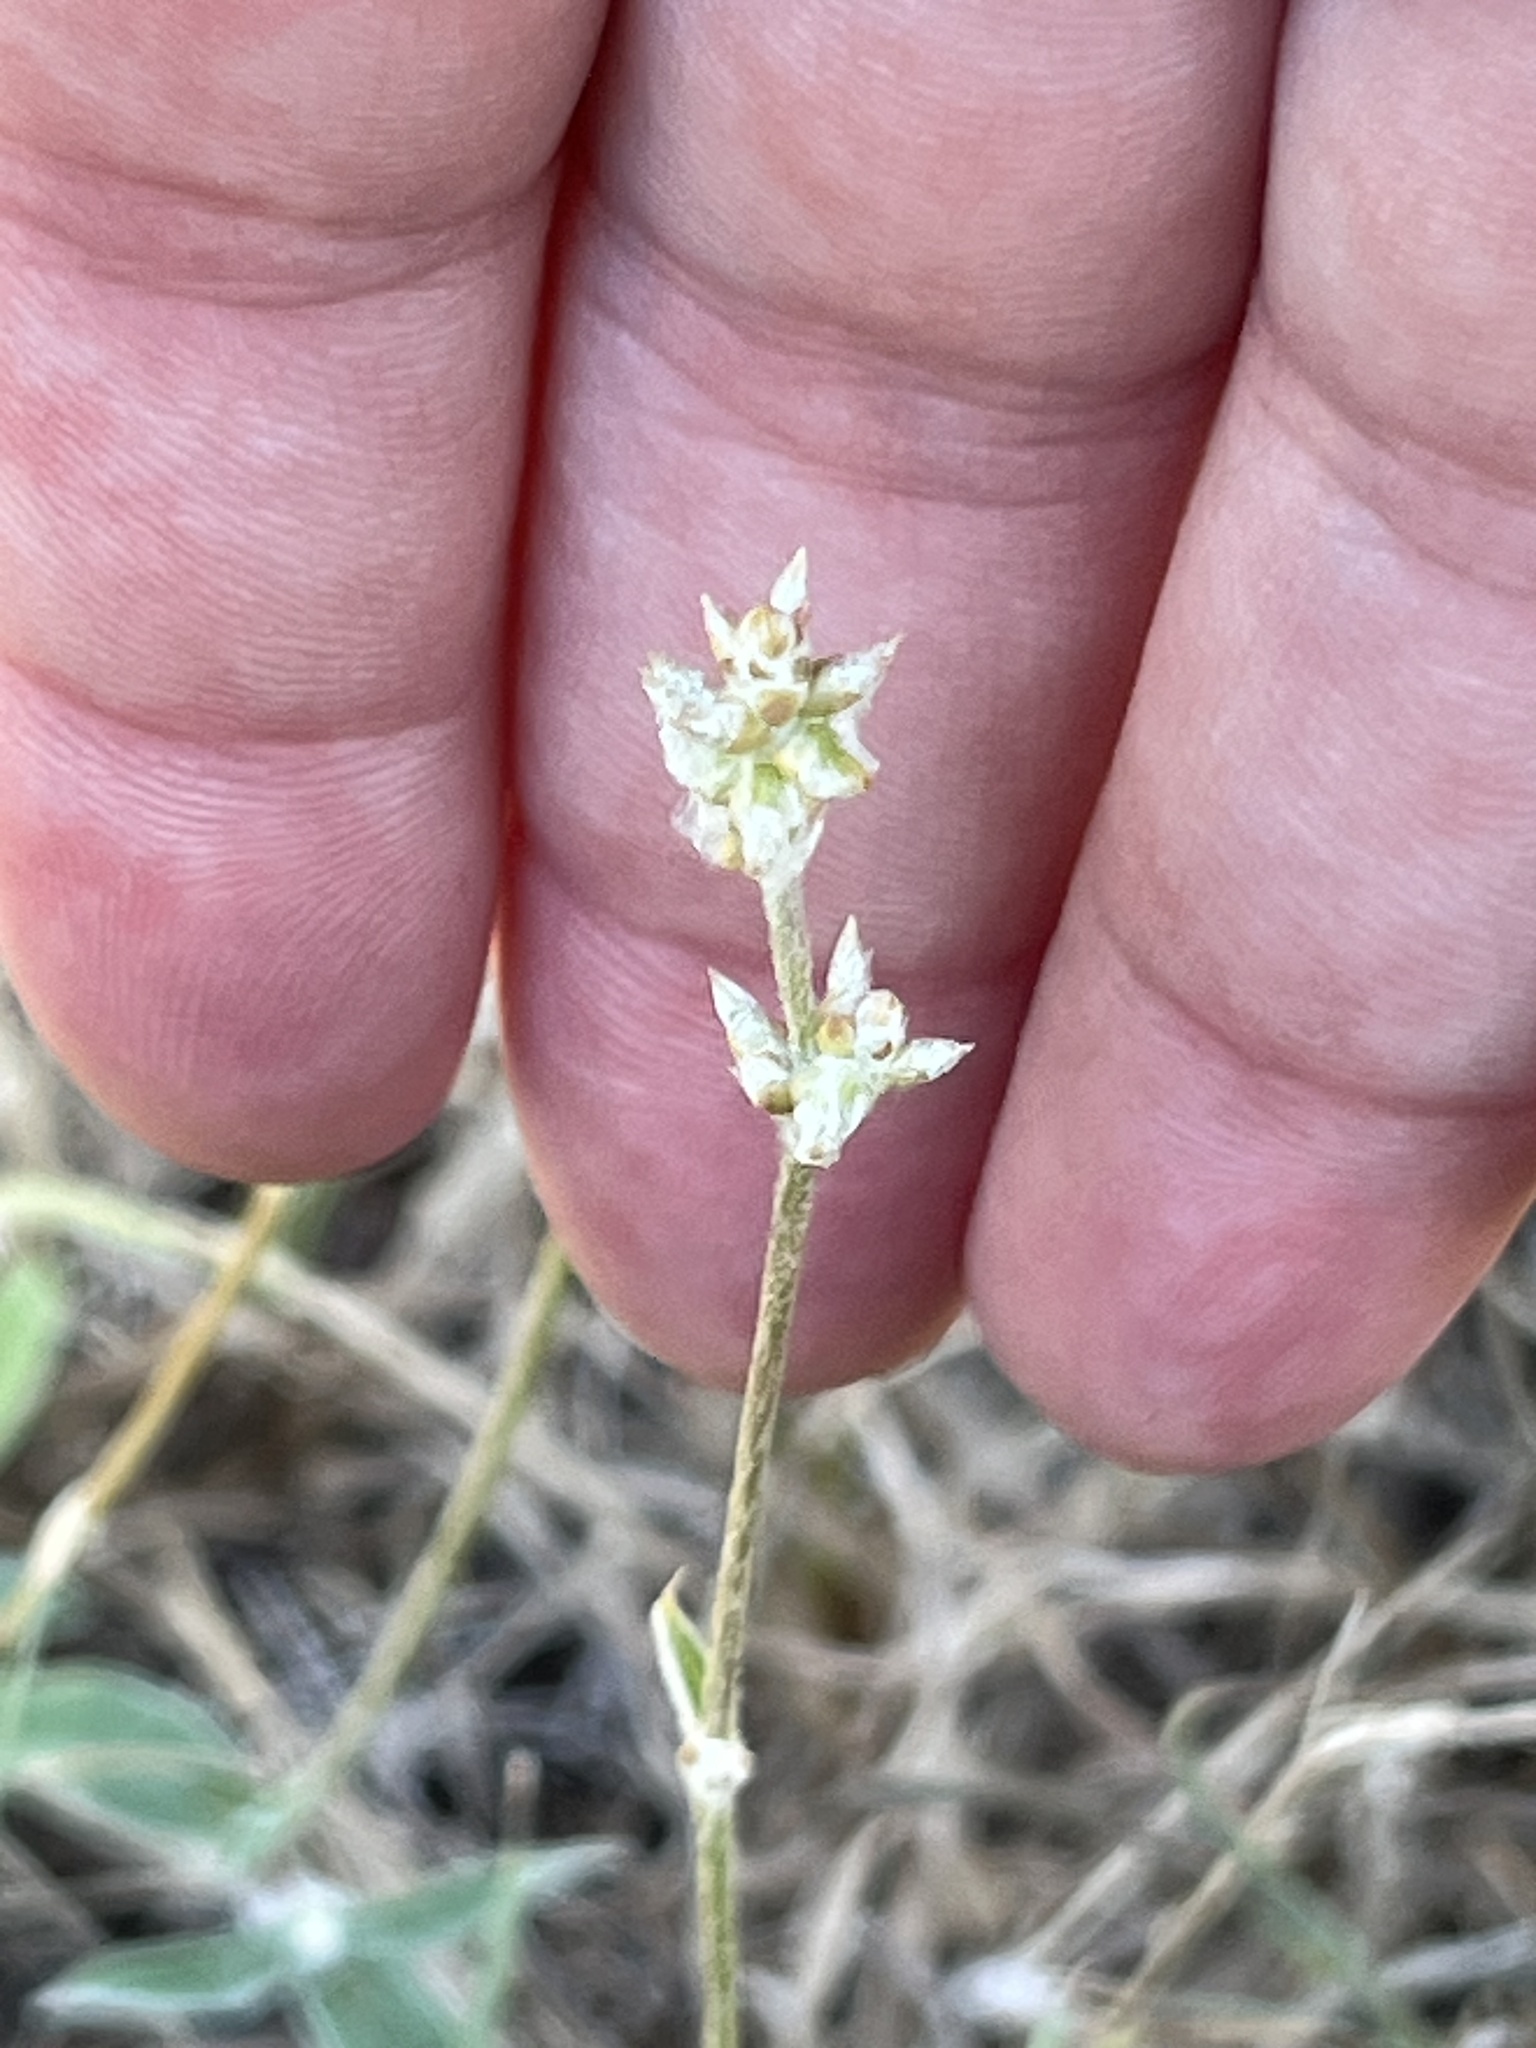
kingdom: Plantae
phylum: Tracheophyta
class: Magnoliopsida
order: Caryophyllales
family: Amaranthaceae
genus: Froelichia
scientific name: Froelichia gracilis
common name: Slender cottonweed
